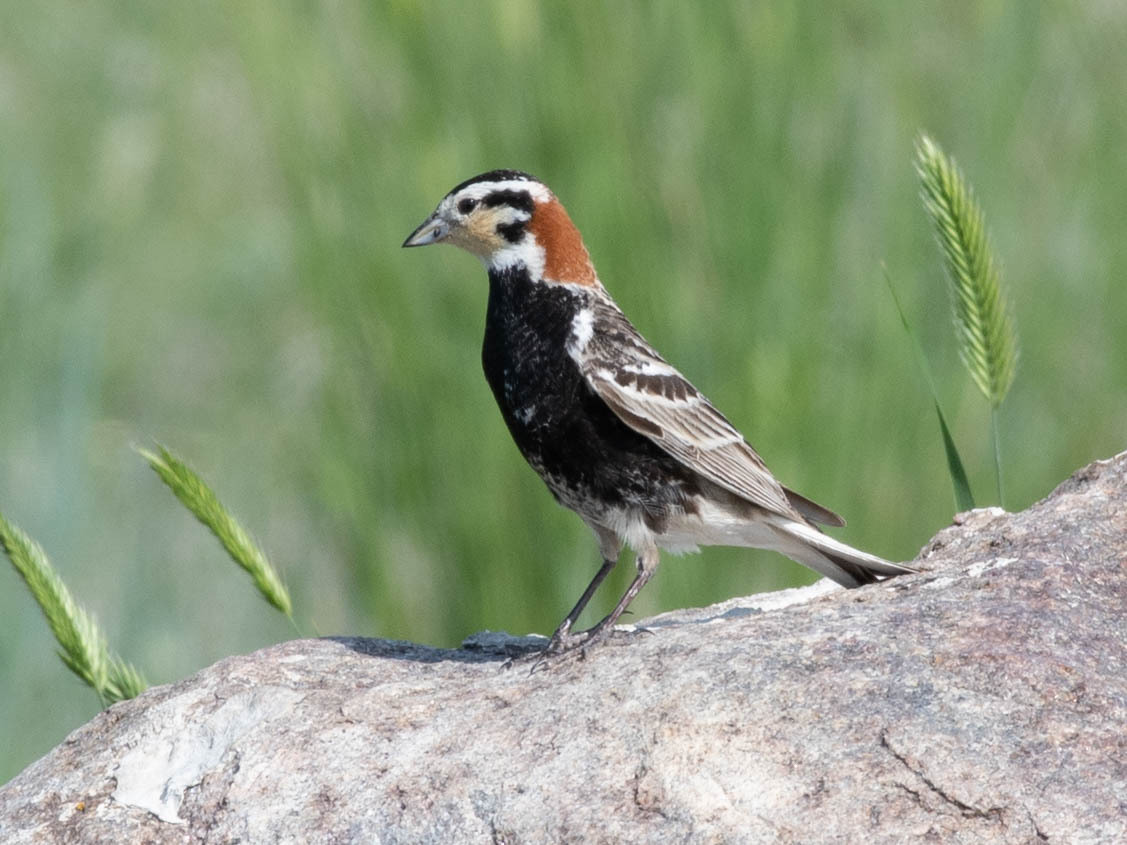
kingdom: Animalia
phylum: Chordata
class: Aves
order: Passeriformes
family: Calcariidae
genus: Calcarius
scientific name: Calcarius ornatus
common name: Chestnut-collared longspur
